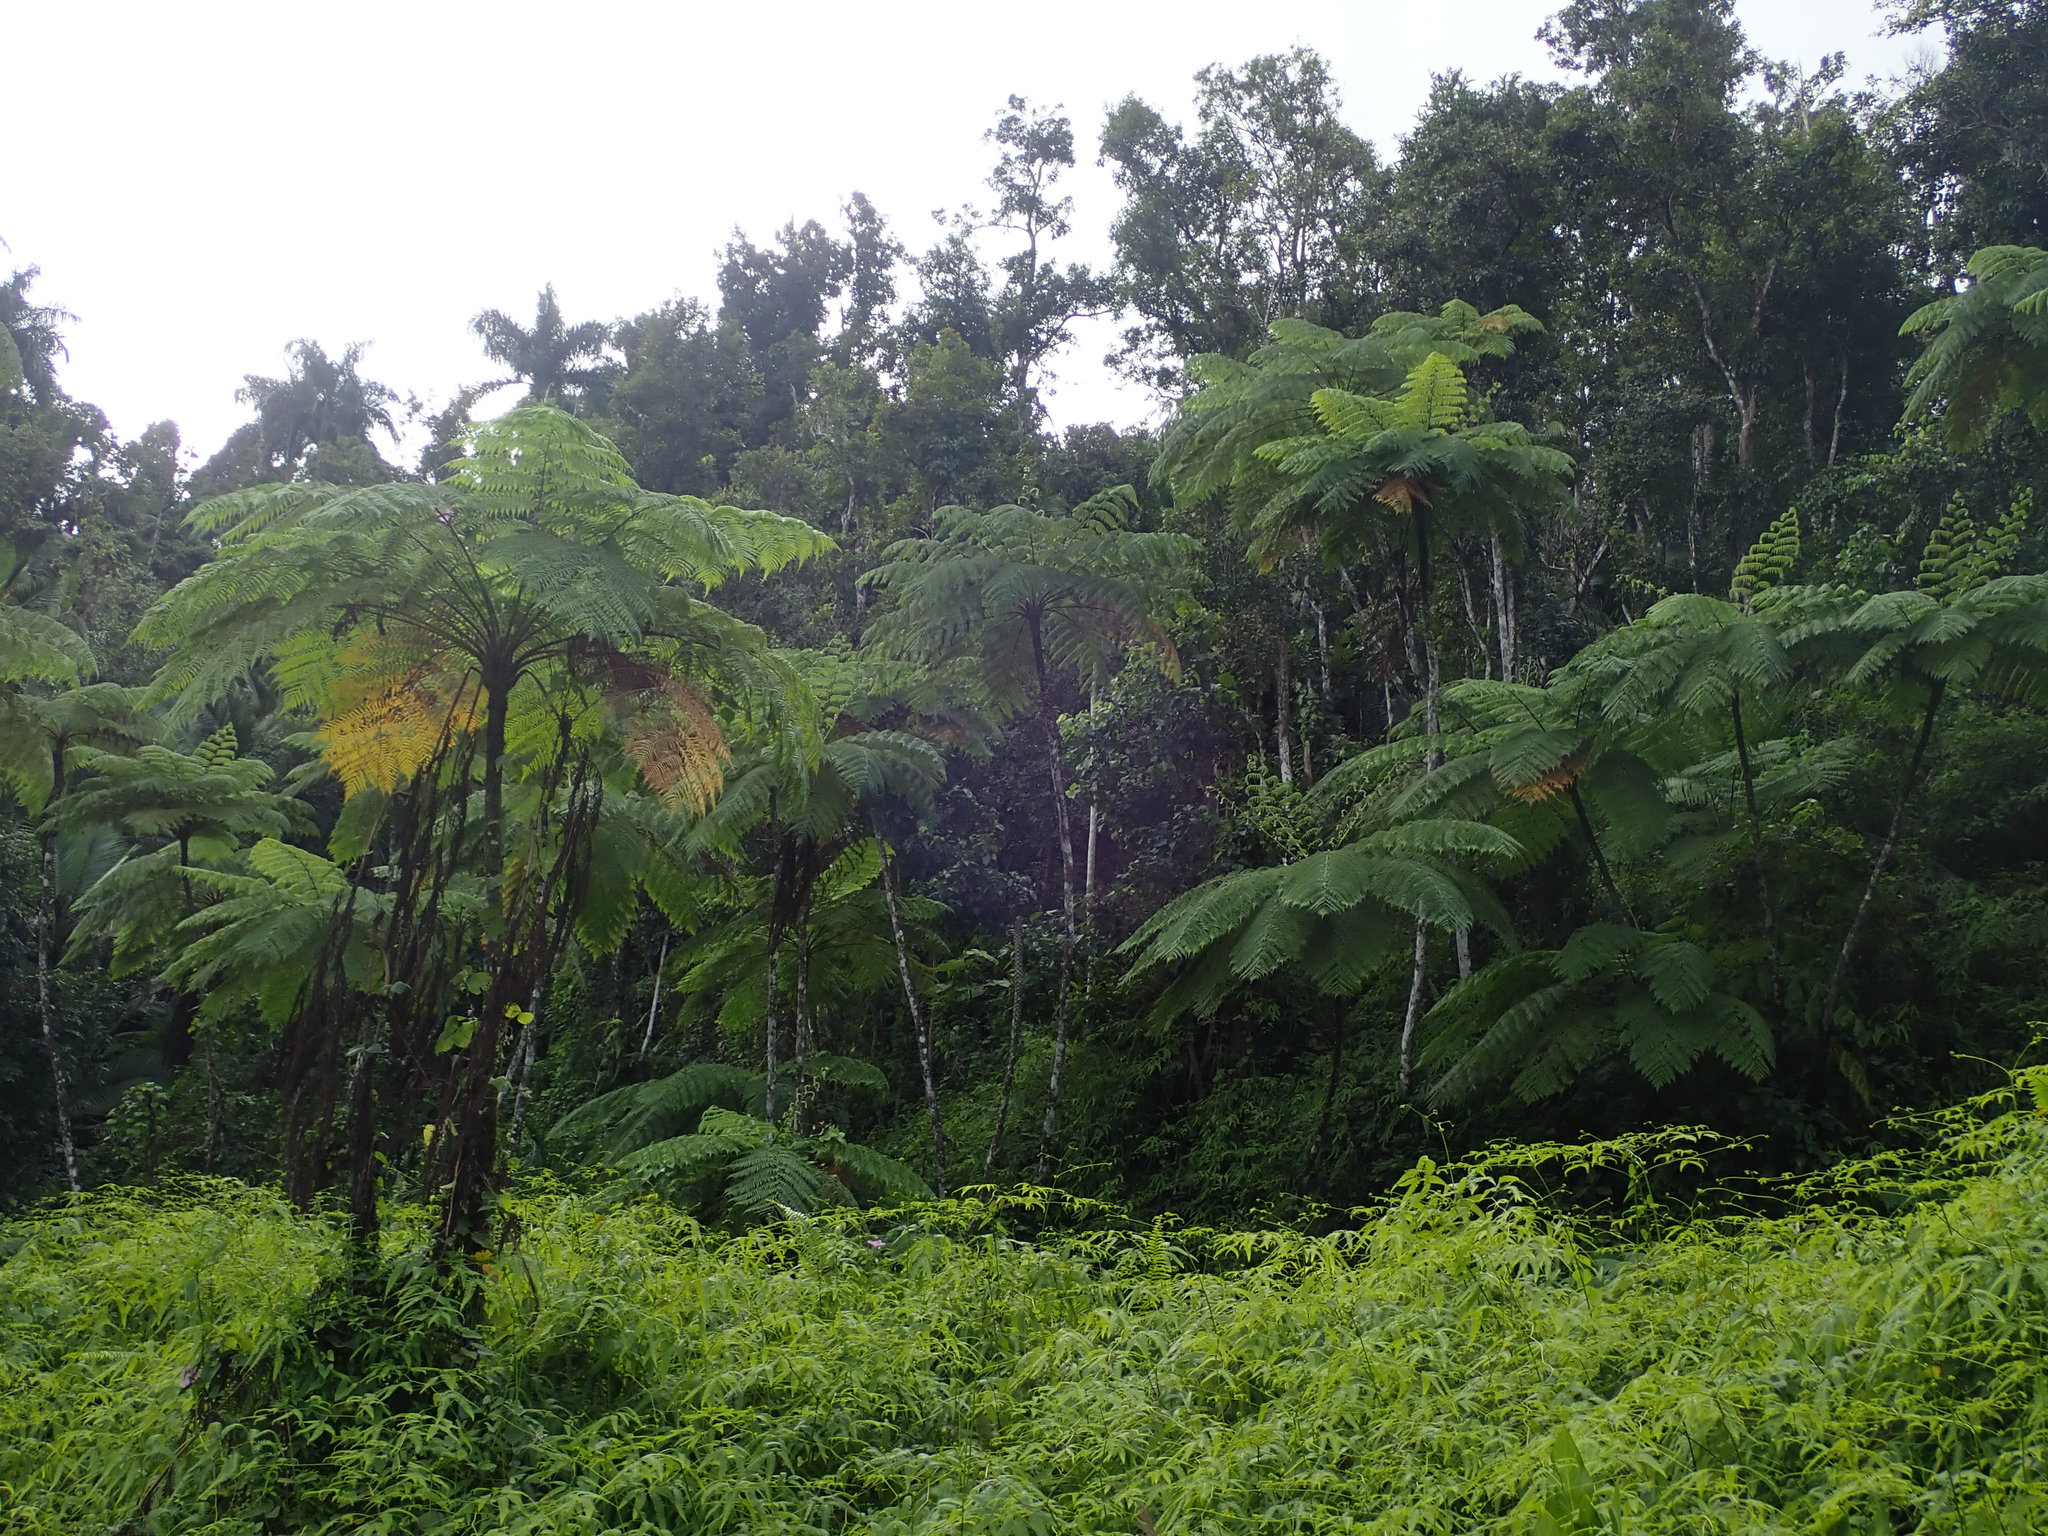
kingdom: Plantae
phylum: Tracheophyta
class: Polypodiopsida
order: Cyatheales
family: Cyatheaceae
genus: Cyathea
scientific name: Cyathea arborea
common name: West indian treefern
